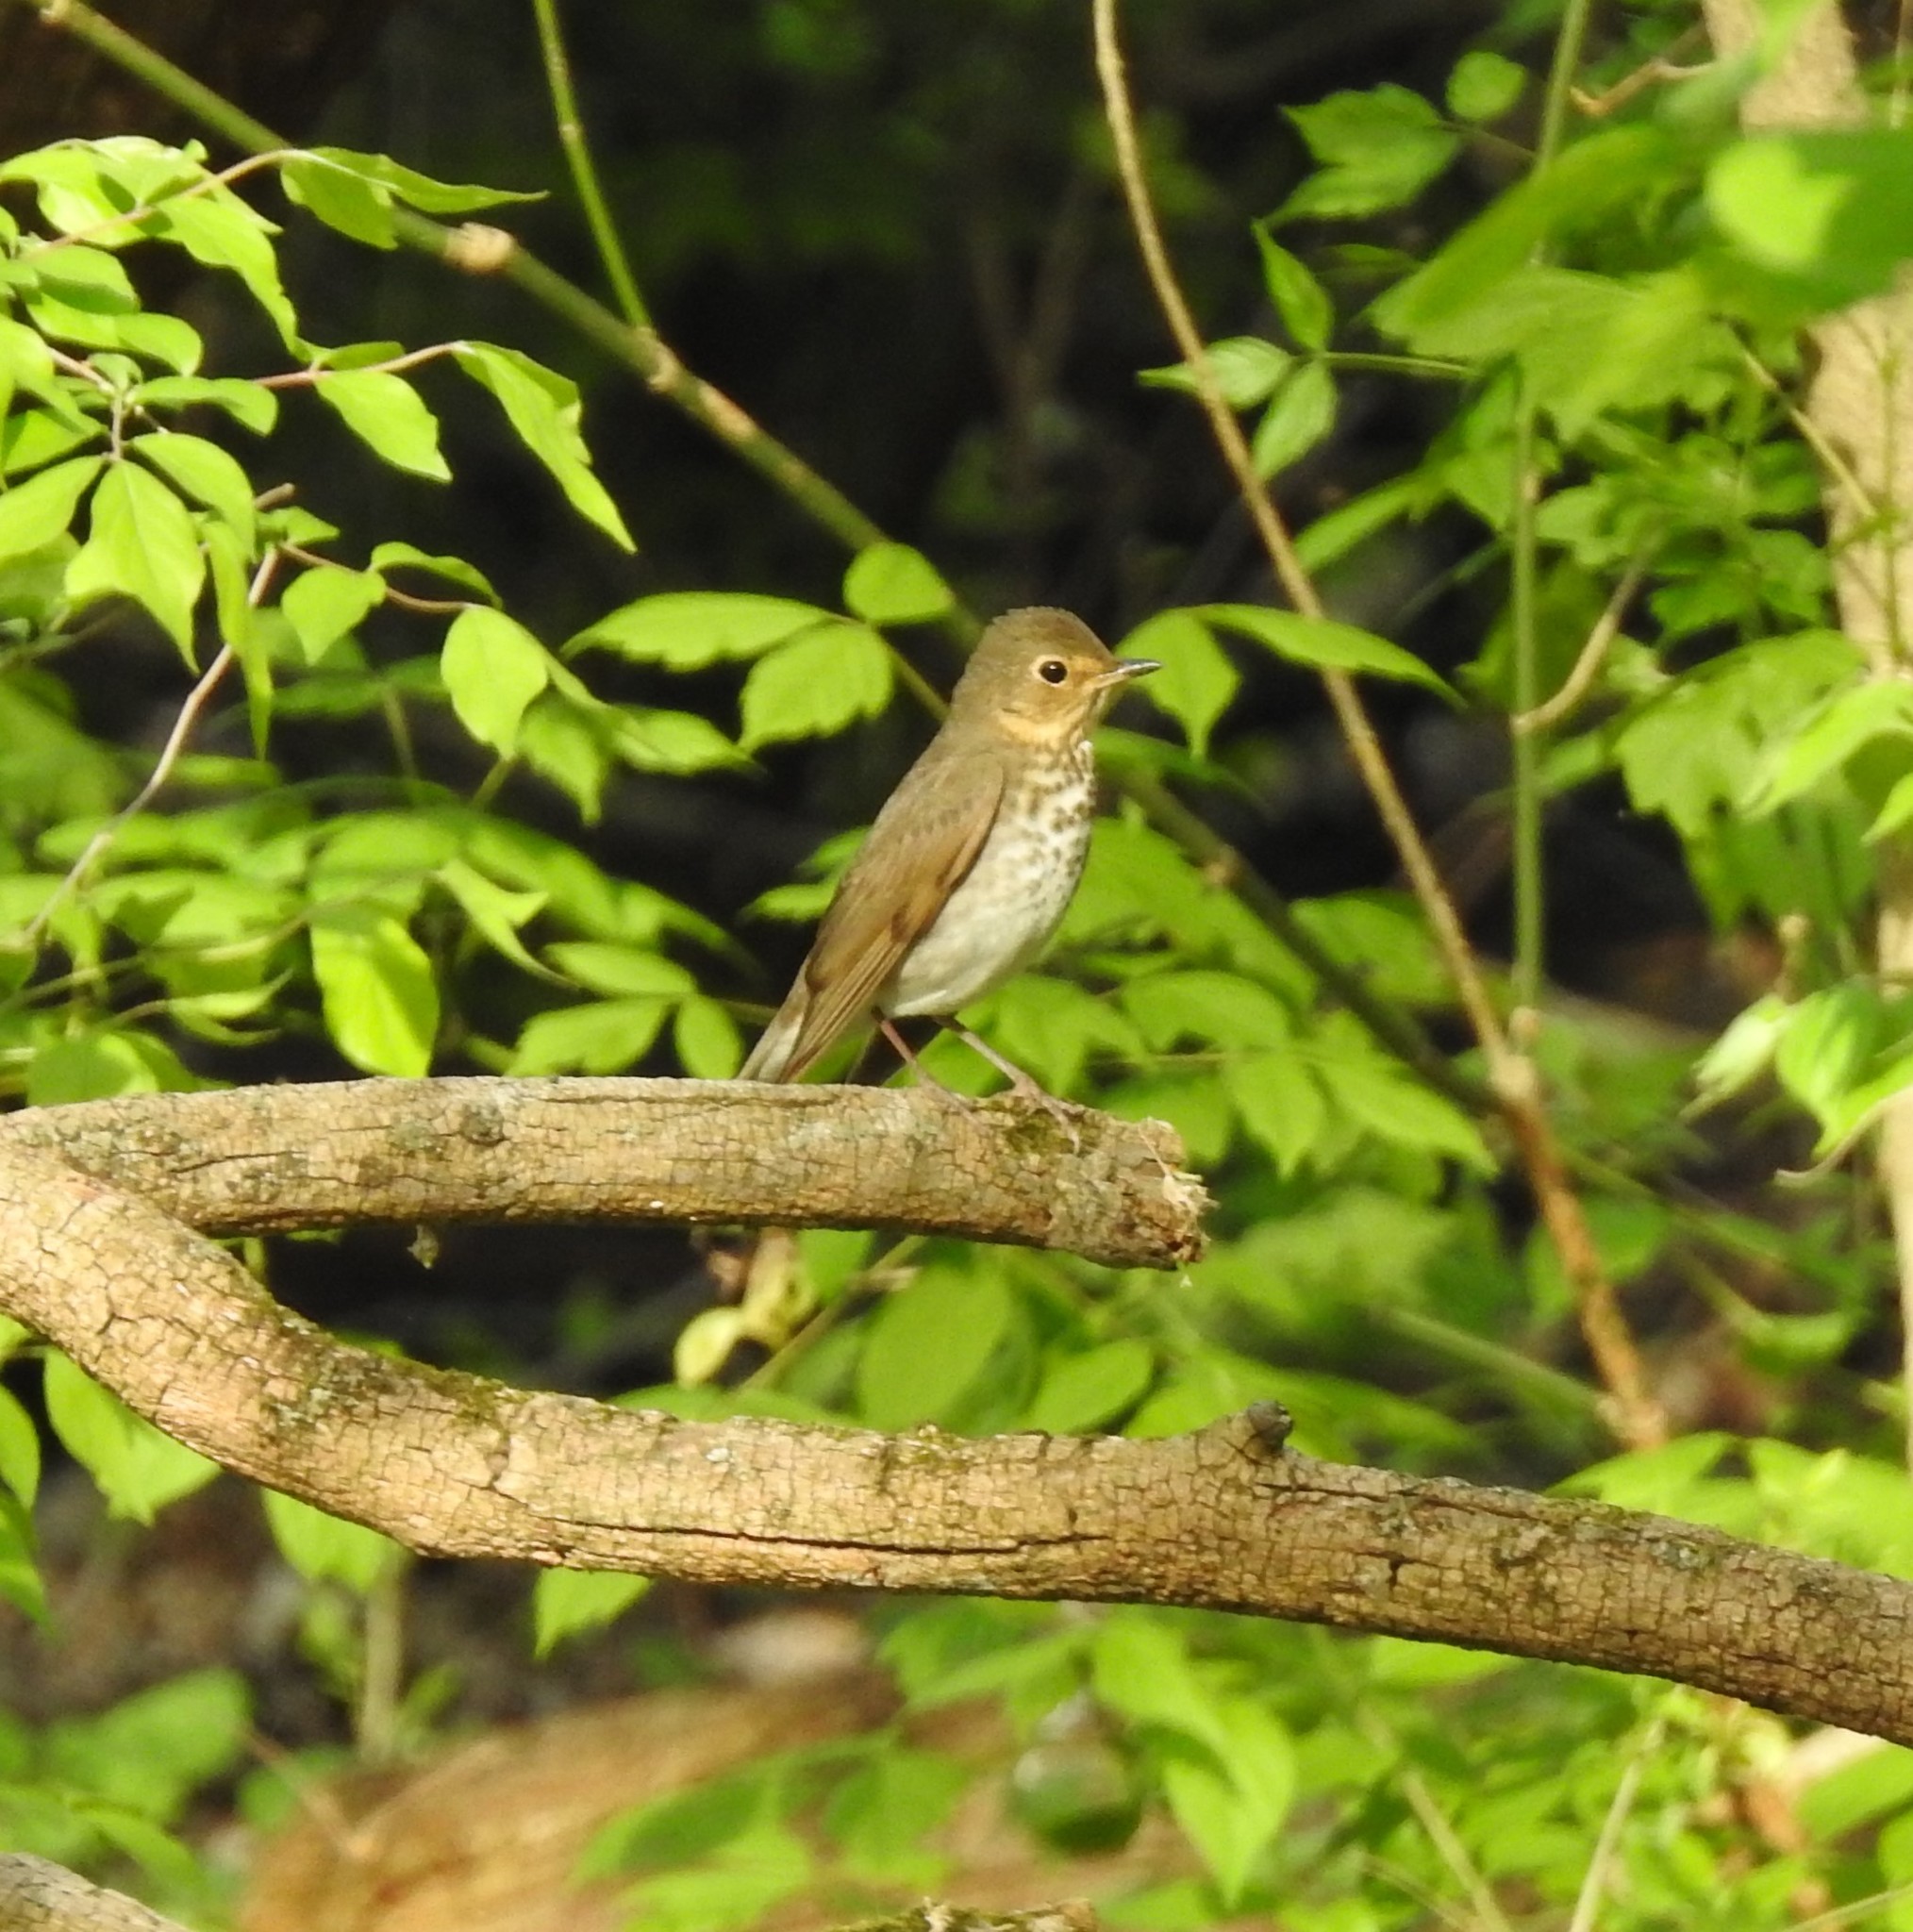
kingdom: Animalia
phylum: Chordata
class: Aves
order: Passeriformes
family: Turdidae
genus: Catharus
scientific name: Catharus ustulatus
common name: Swainson's thrush
